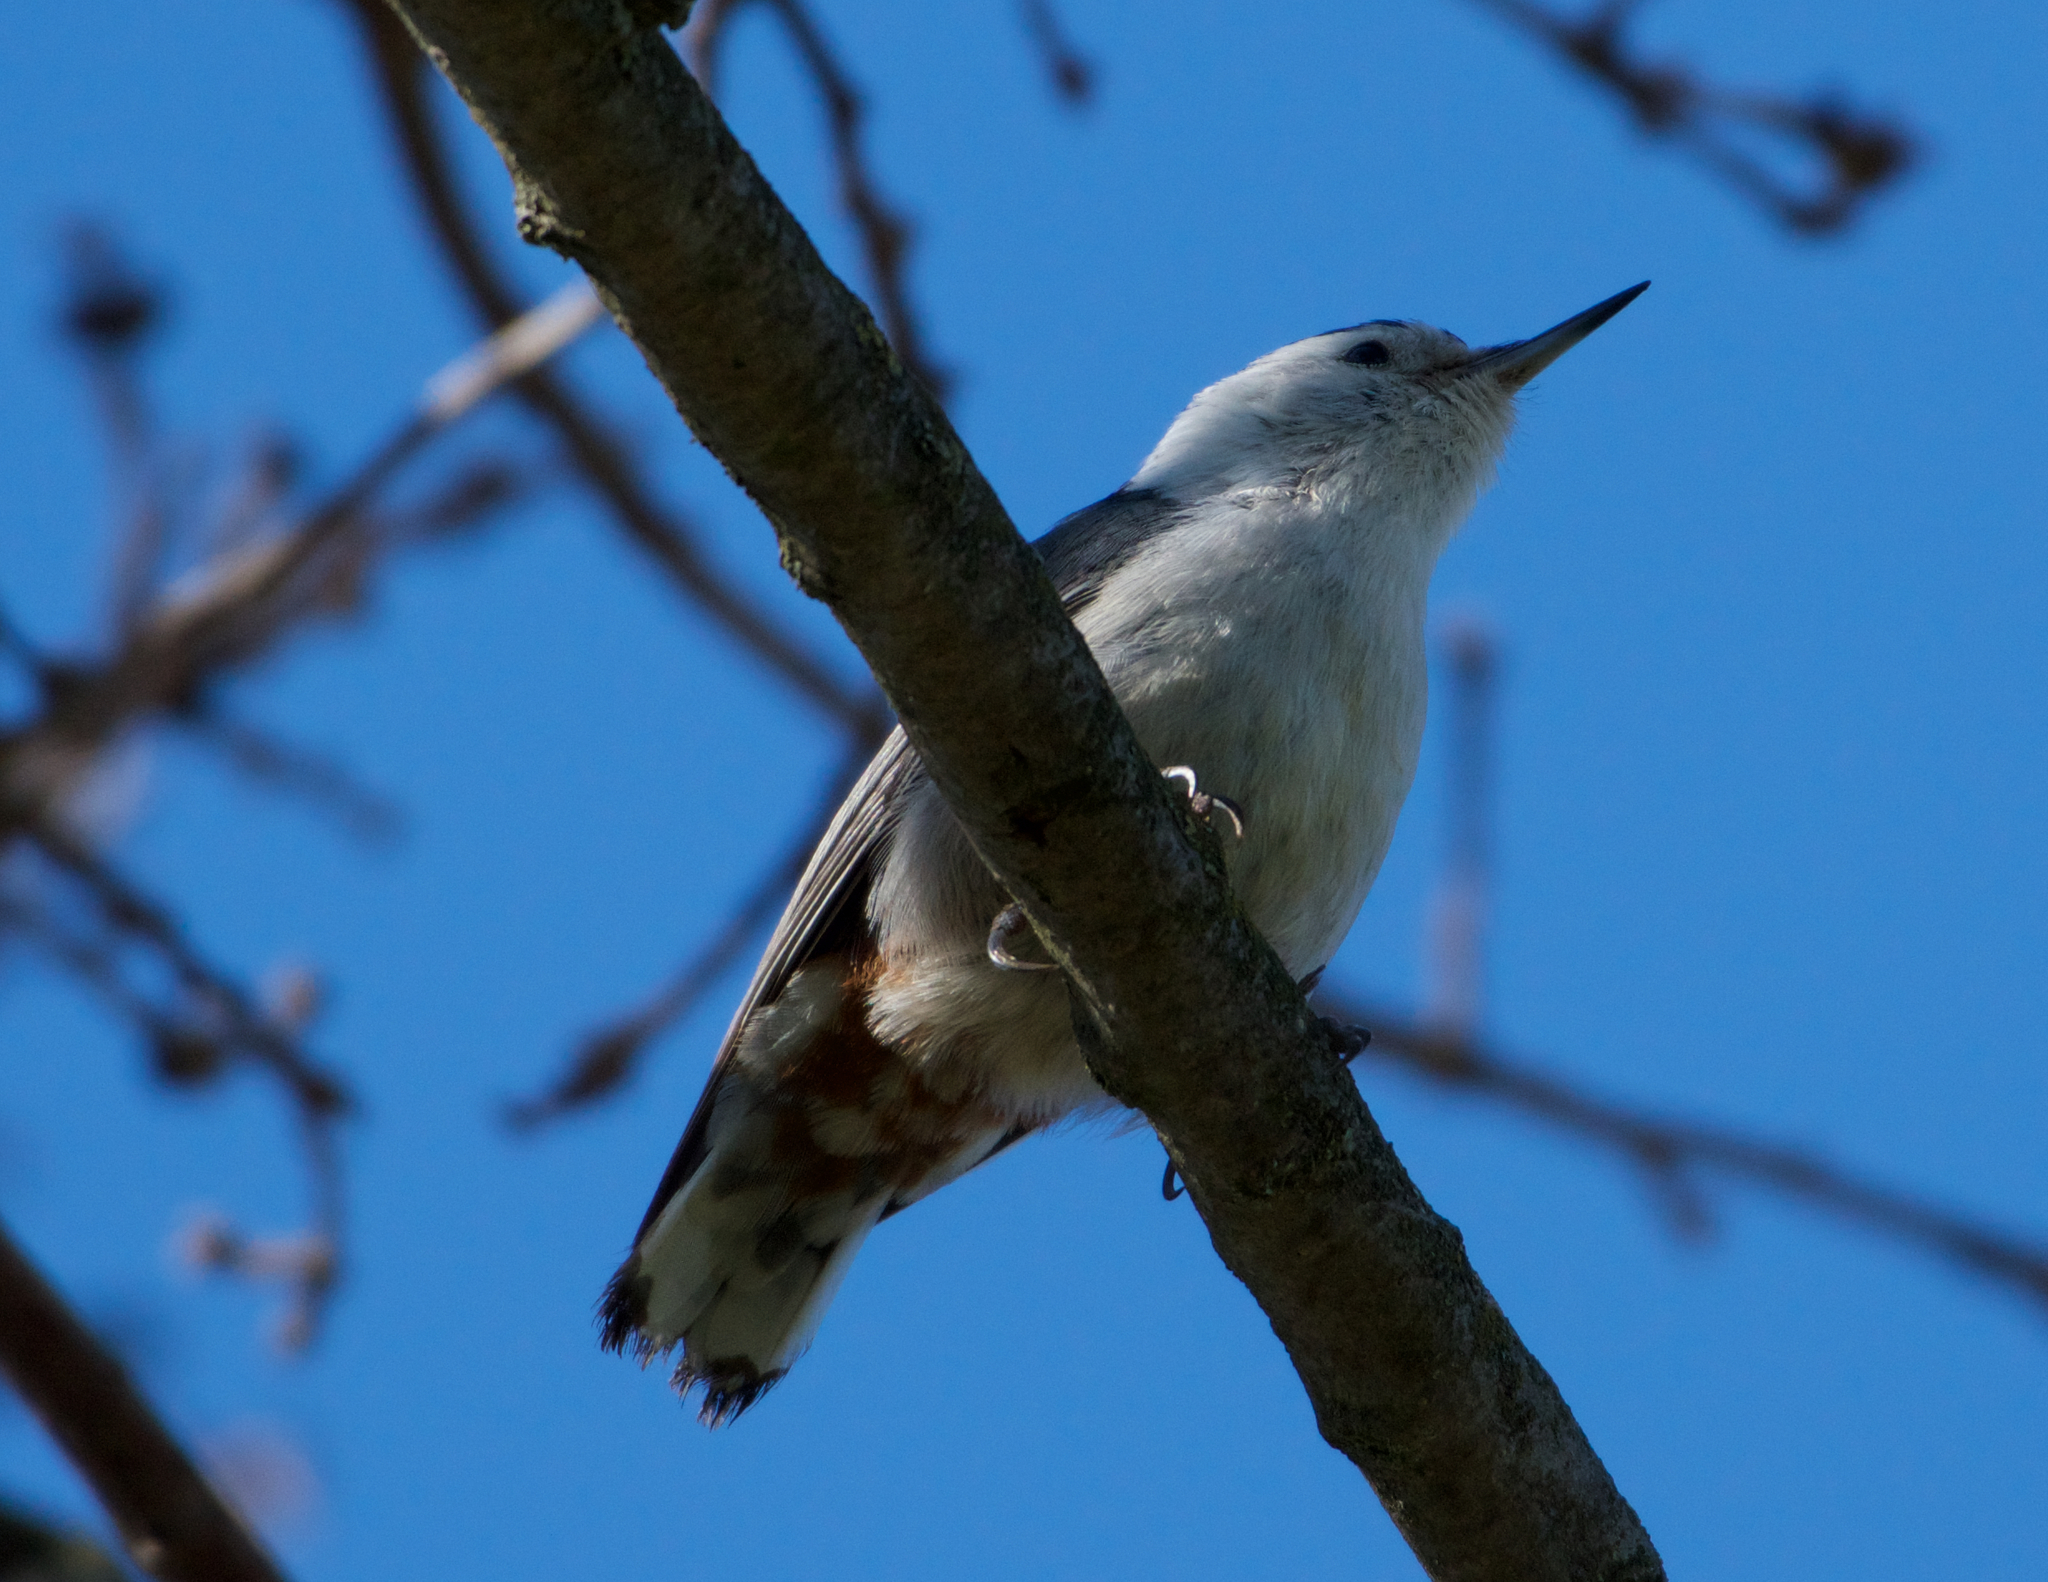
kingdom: Animalia
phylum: Chordata
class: Aves
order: Passeriformes
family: Sittidae
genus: Sitta
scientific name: Sitta carolinensis
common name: White-breasted nuthatch
